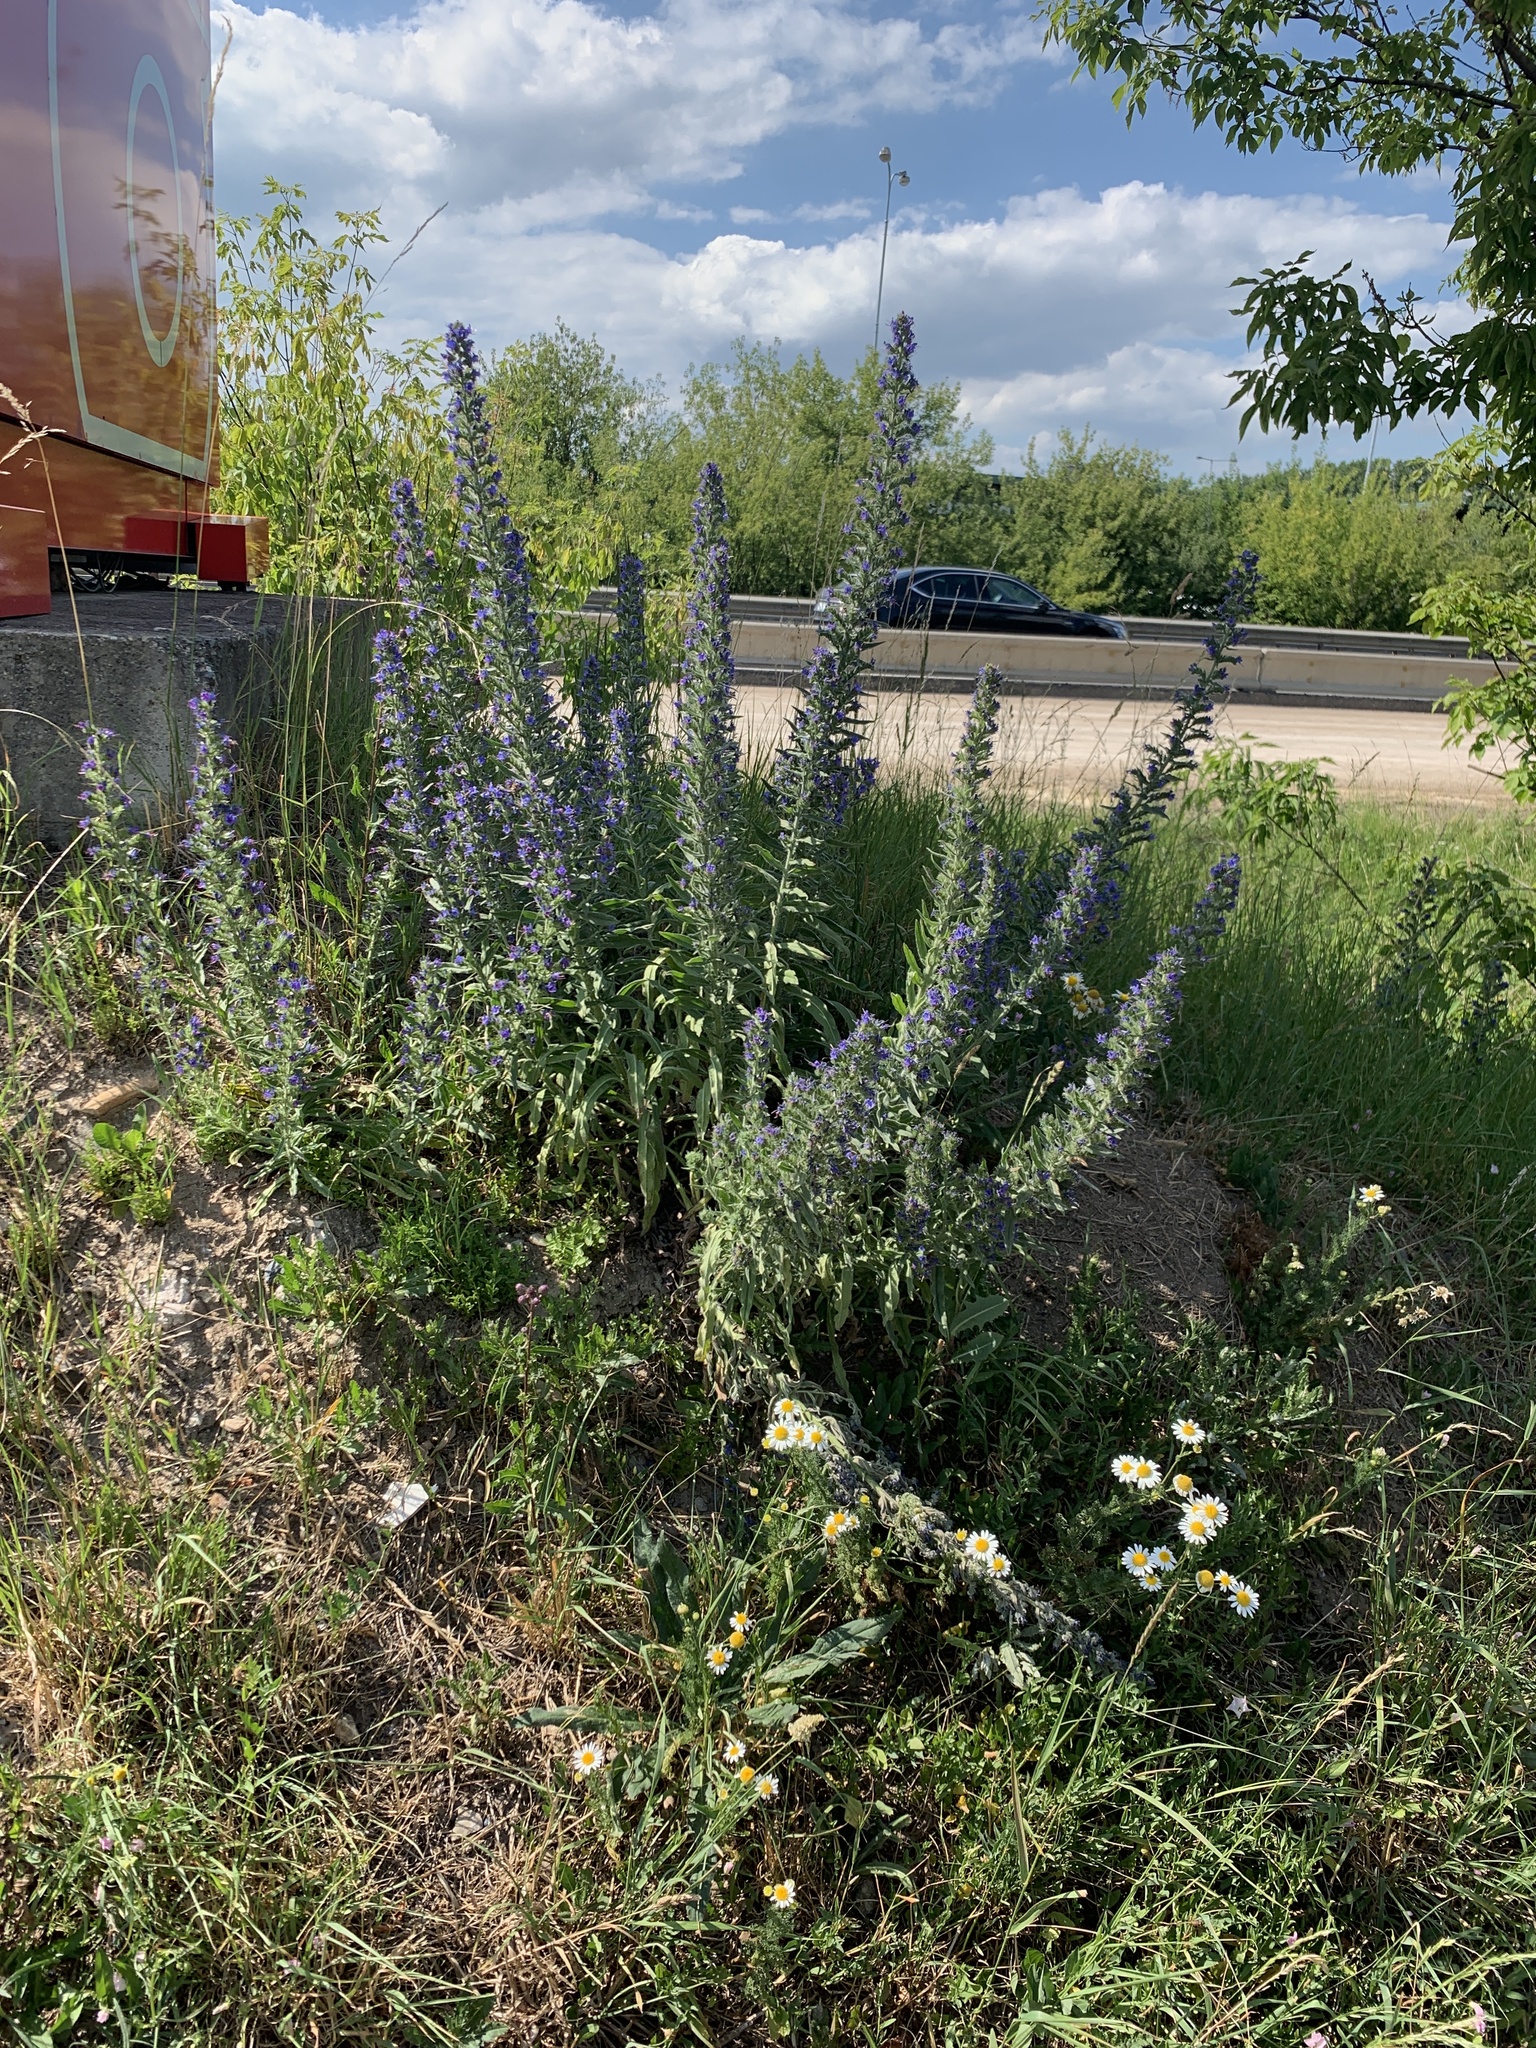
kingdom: Plantae
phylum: Tracheophyta
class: Magnoliopsida
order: Boraginales
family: Boraginaceae
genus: Echium
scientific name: Echium vulgare
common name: Common viper's bugloss
